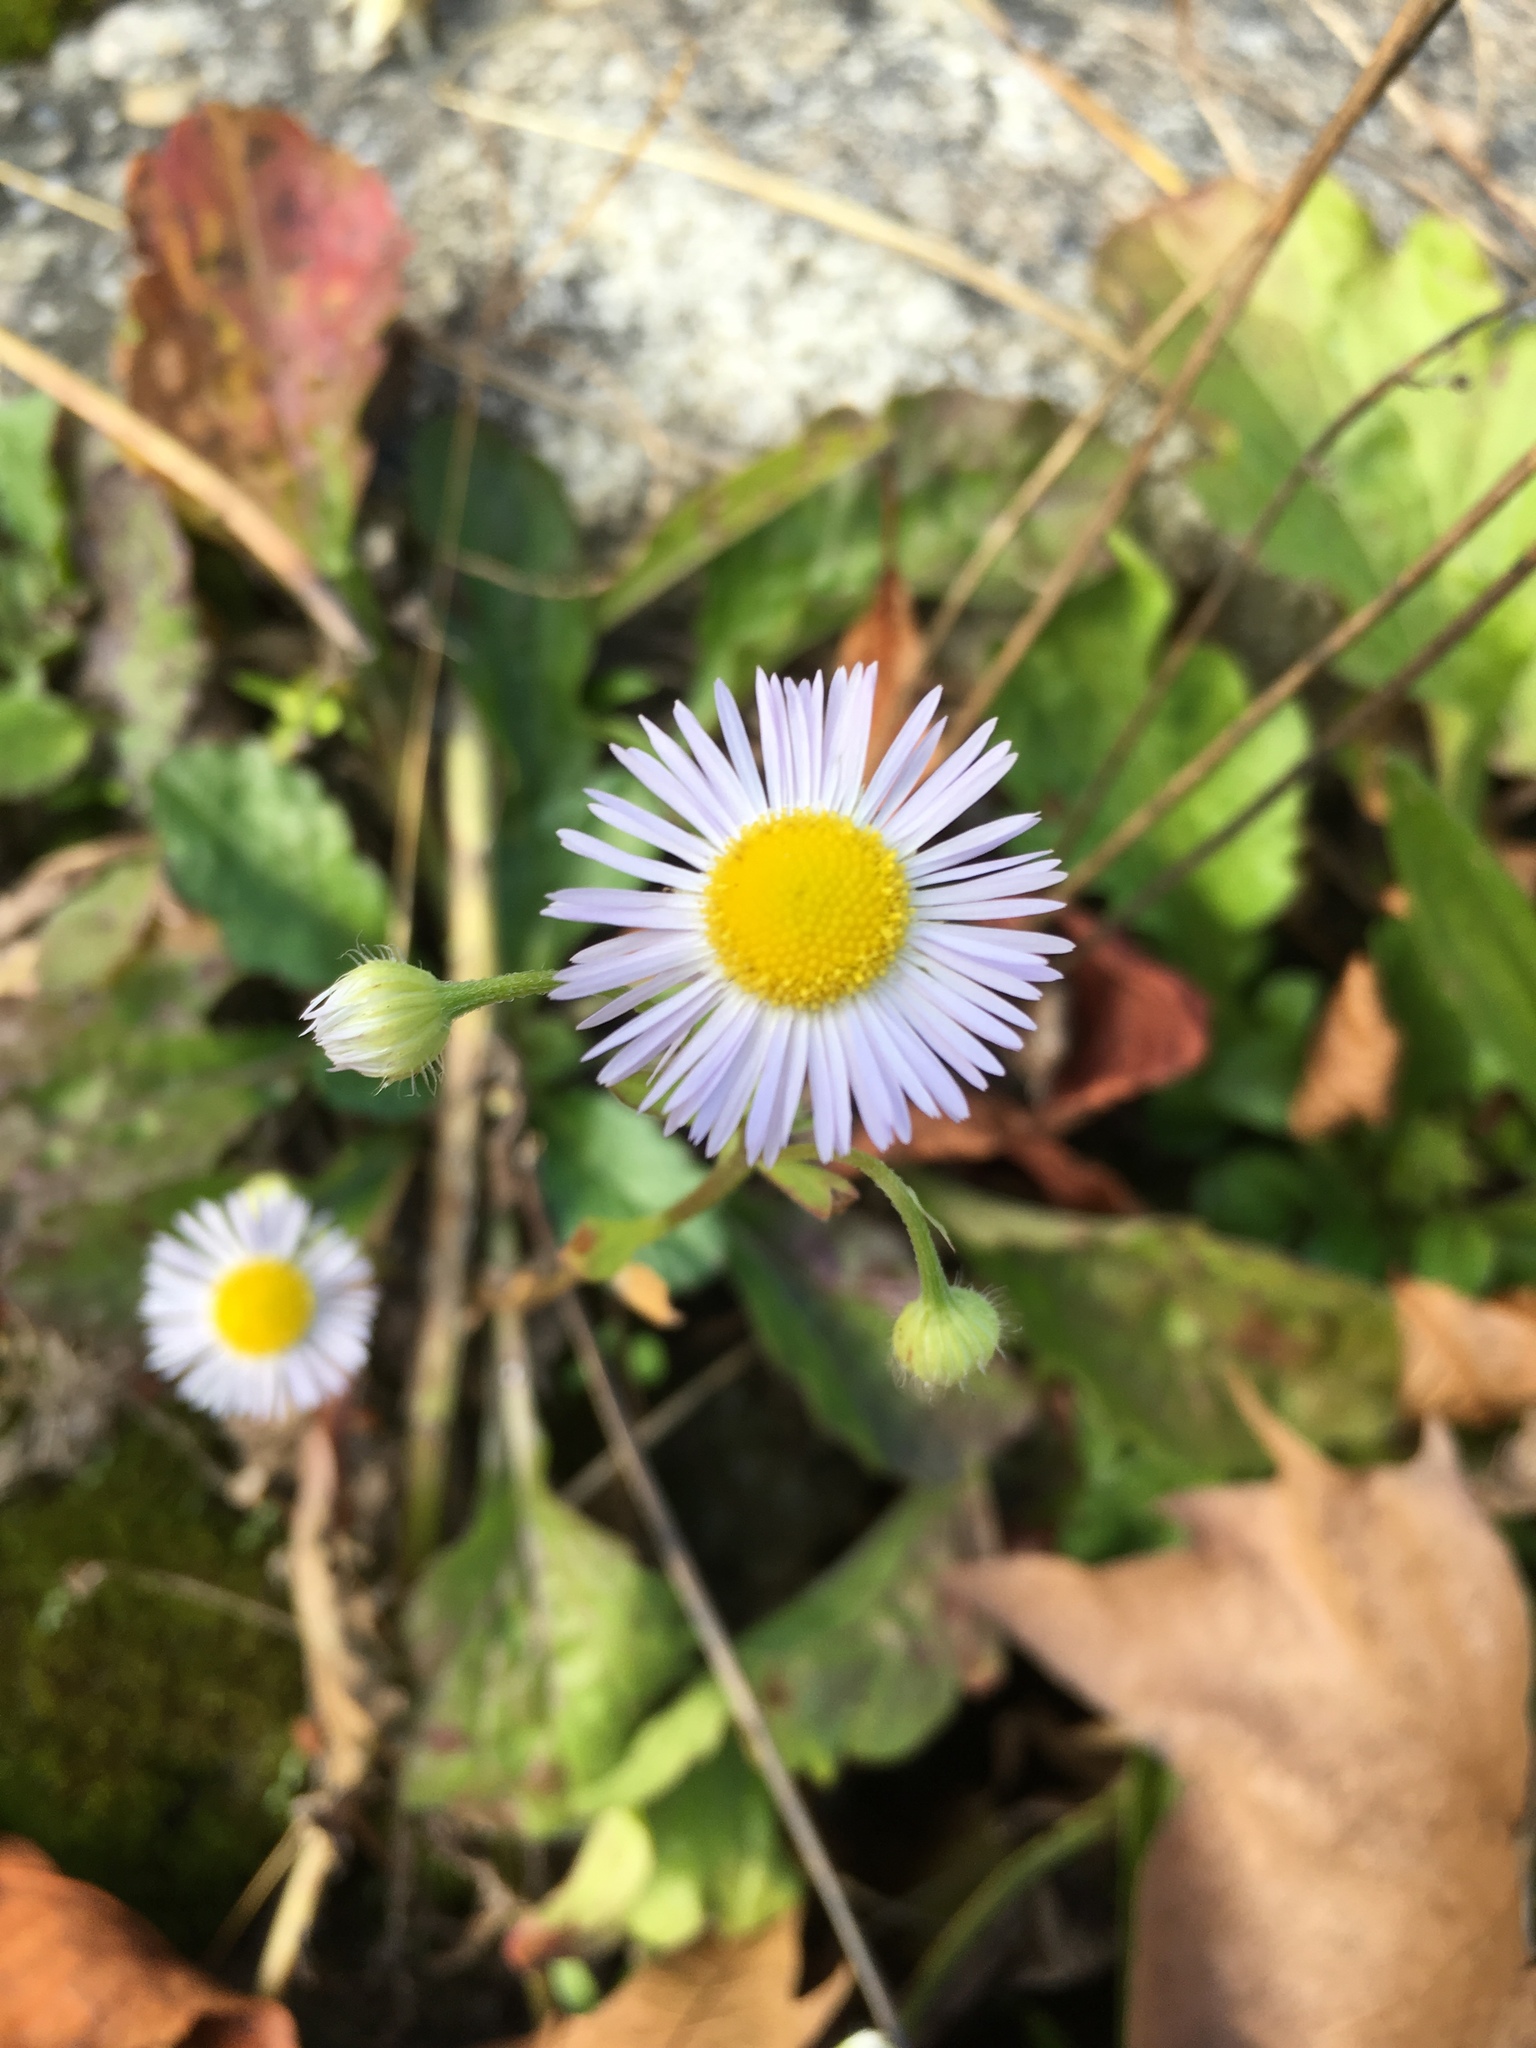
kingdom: Plantae
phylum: Tracheophyta
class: Magnoliopsida
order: Asterales
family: Asteraceae
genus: Erigeron
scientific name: Erigeron annuus
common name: Tall fleabane
